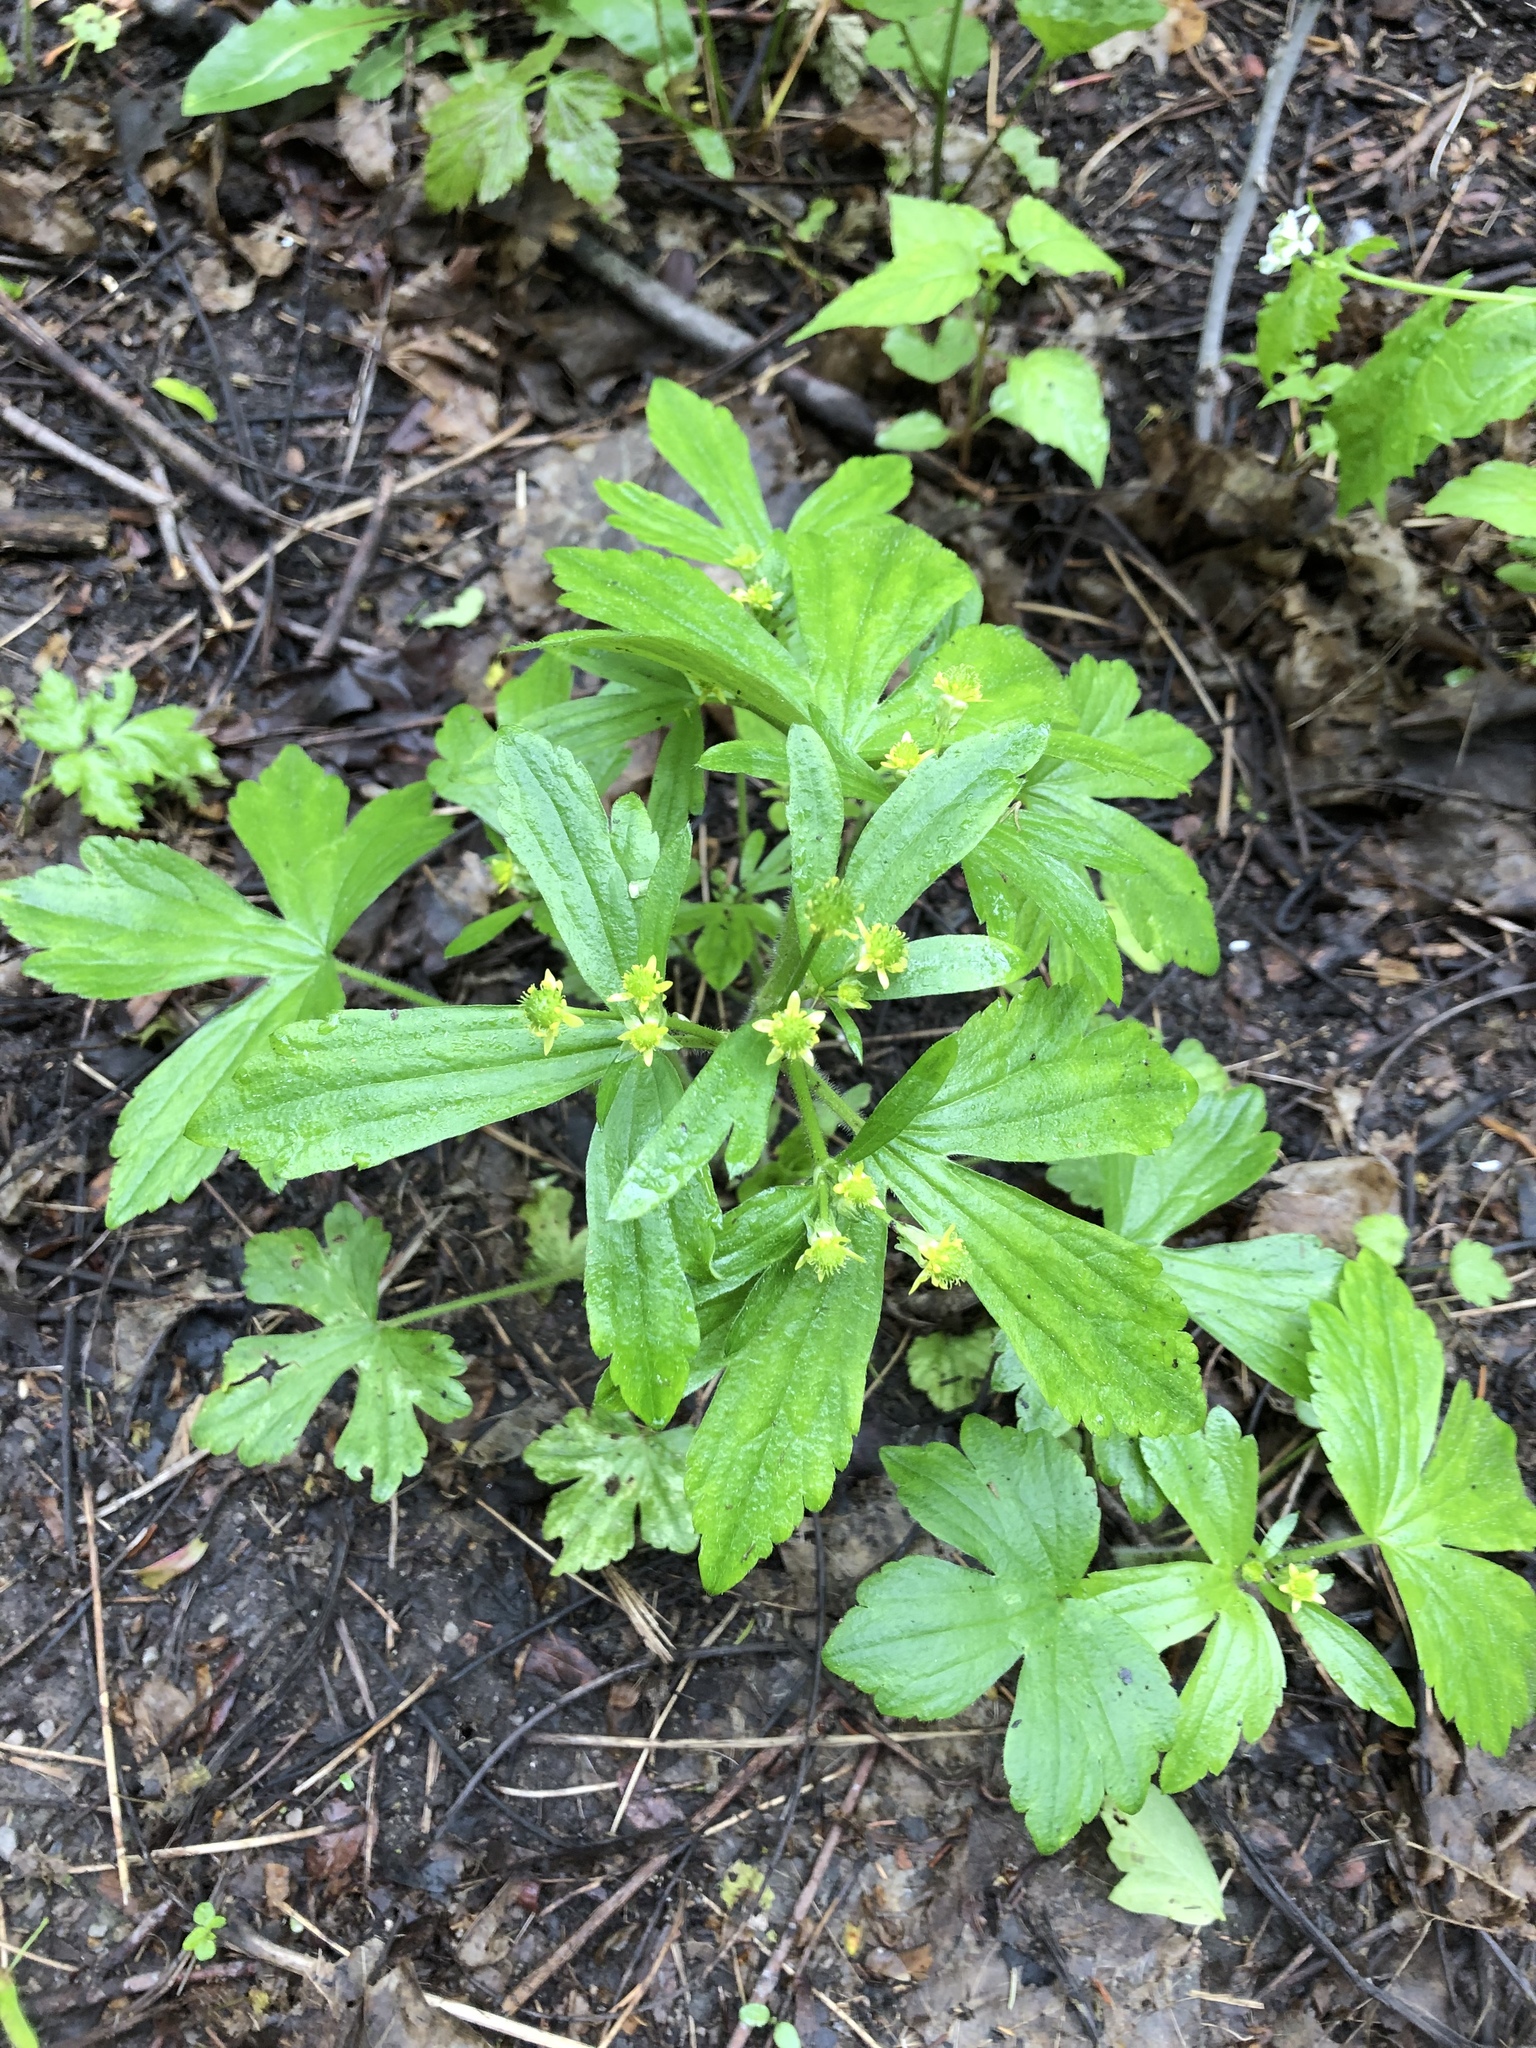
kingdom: Plantae
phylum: Tracheophyta
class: Magnoliopsida
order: Ranunculales
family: Ranunculaceae
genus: Ranunculus
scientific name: Ranunculus recurvatus
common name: Blisterwort
